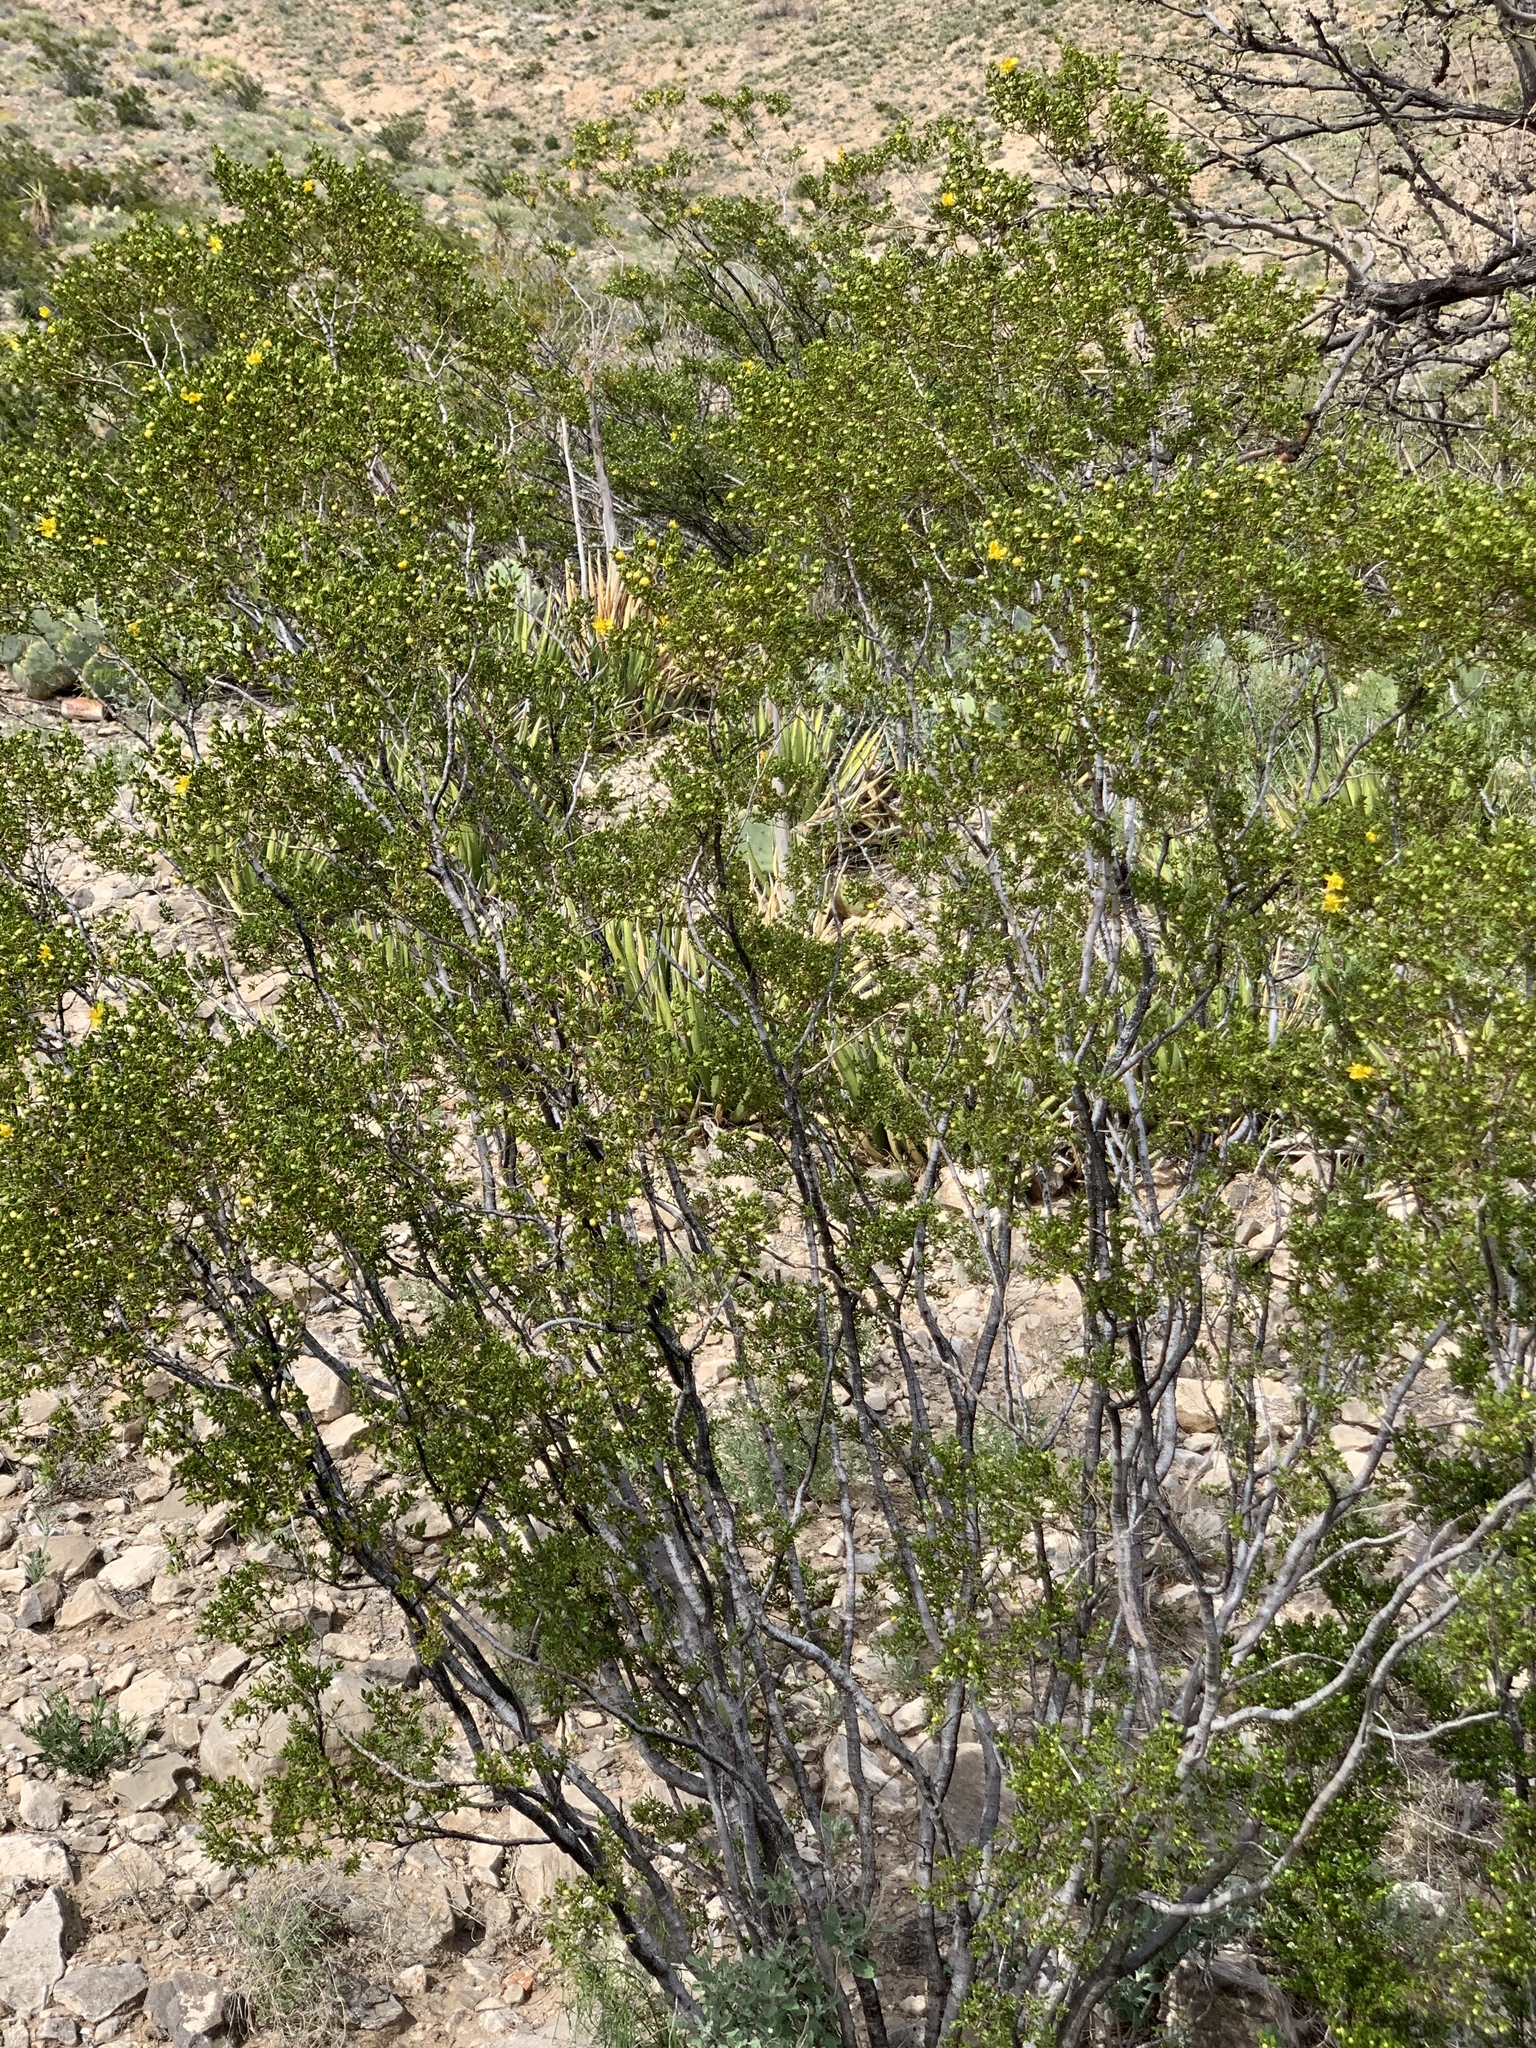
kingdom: Plantae
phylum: Tracheophyta
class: Magnoliopsida
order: Zygophyllales
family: Zygophyllaceae
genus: Larrea
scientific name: Larrea tridentata
